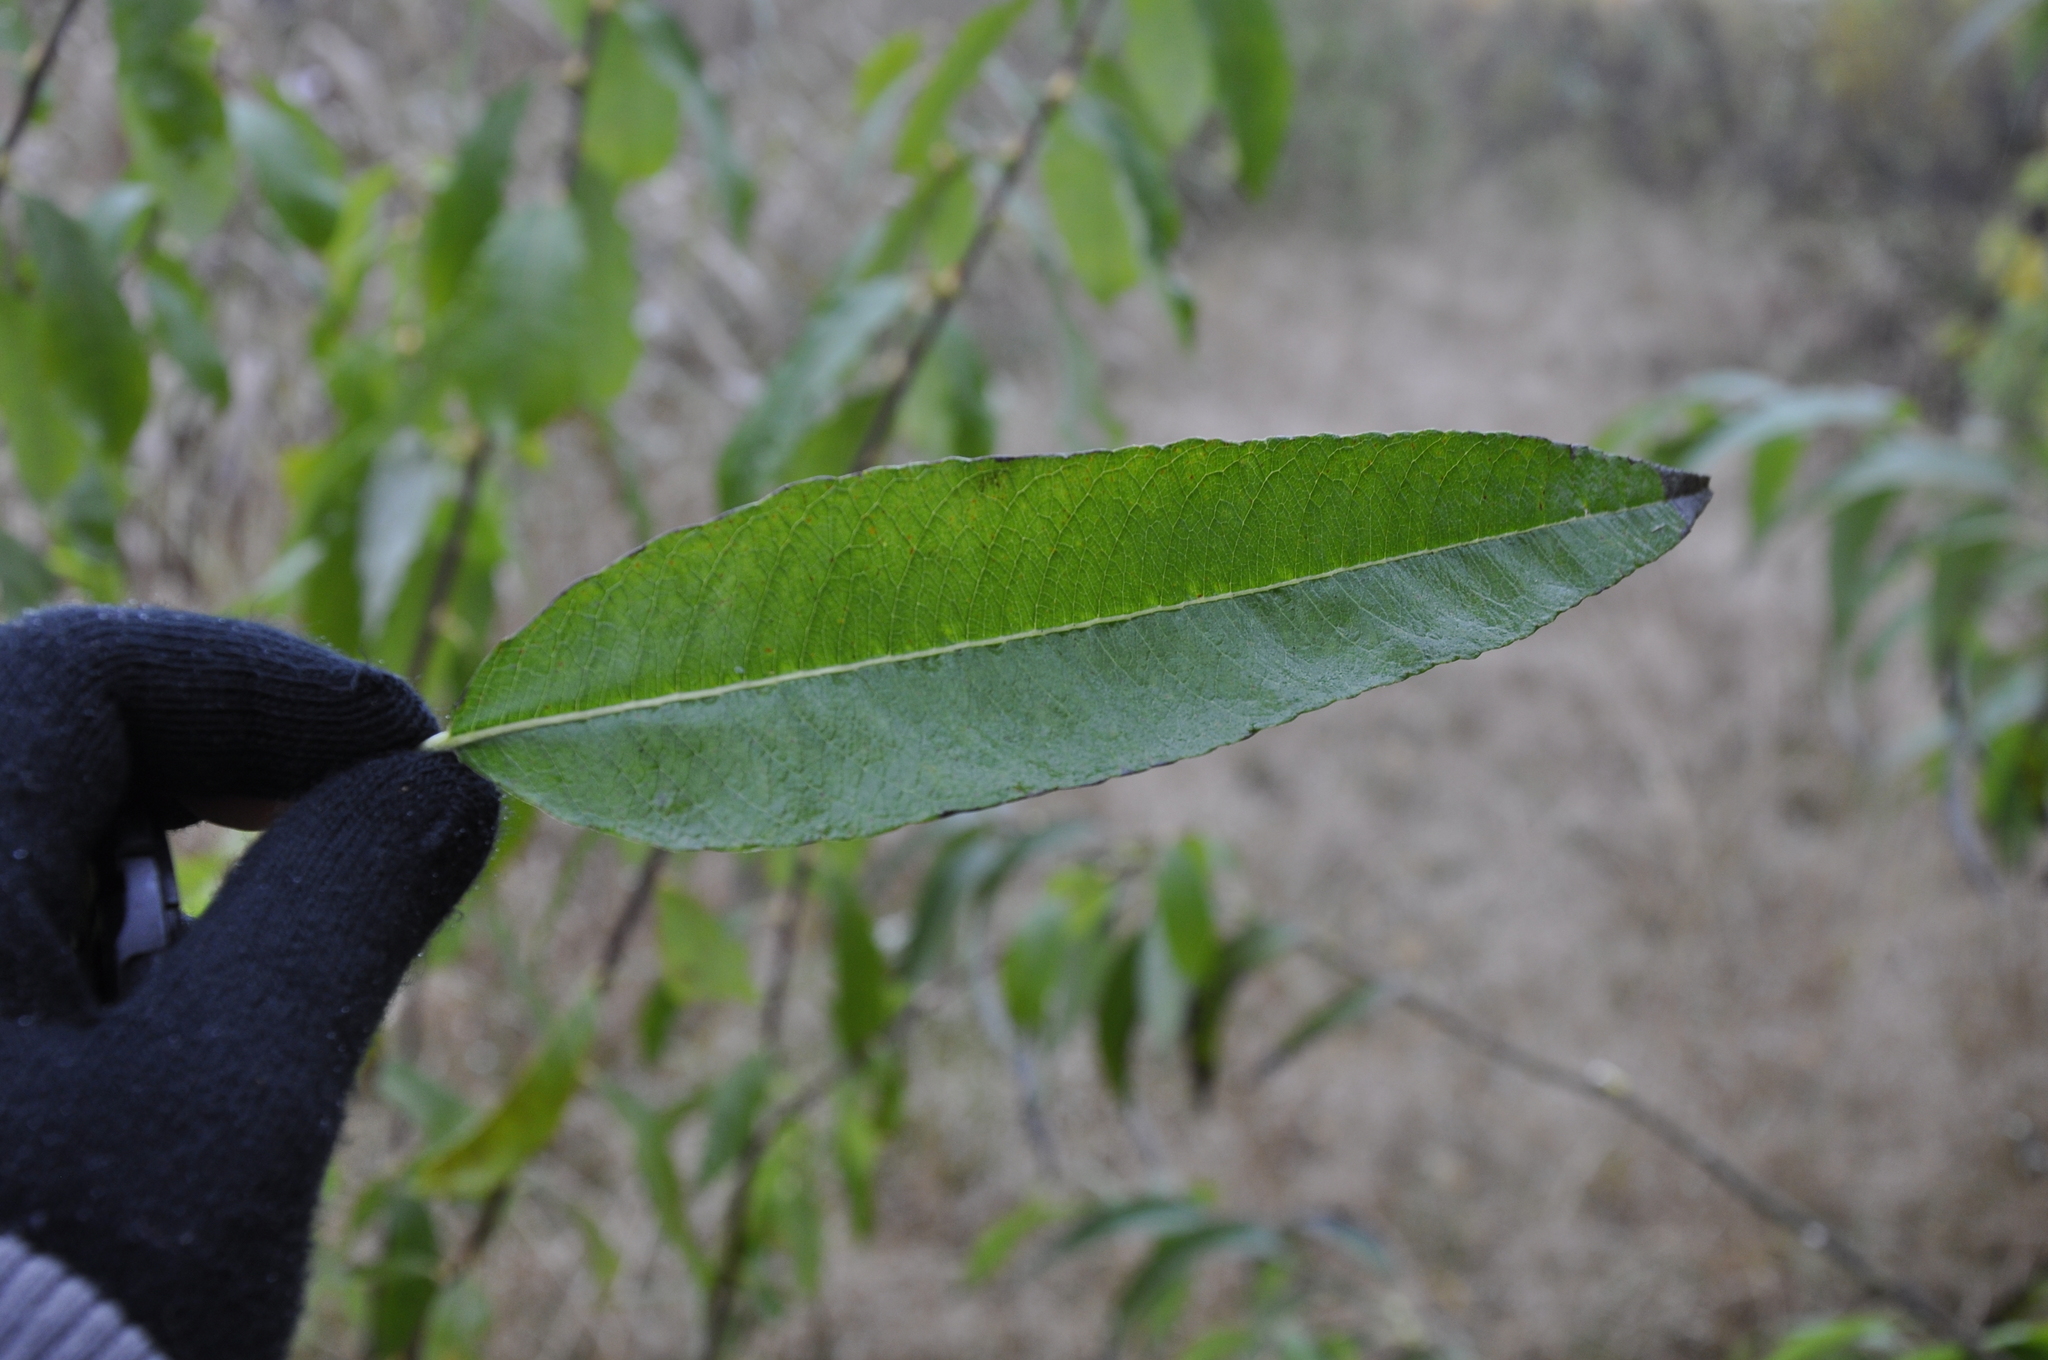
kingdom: Plantae
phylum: Tracheophyta
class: Magnoliopsida
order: Malpighiales
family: Salicaceae
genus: Salix
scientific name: Salix gmelinii
